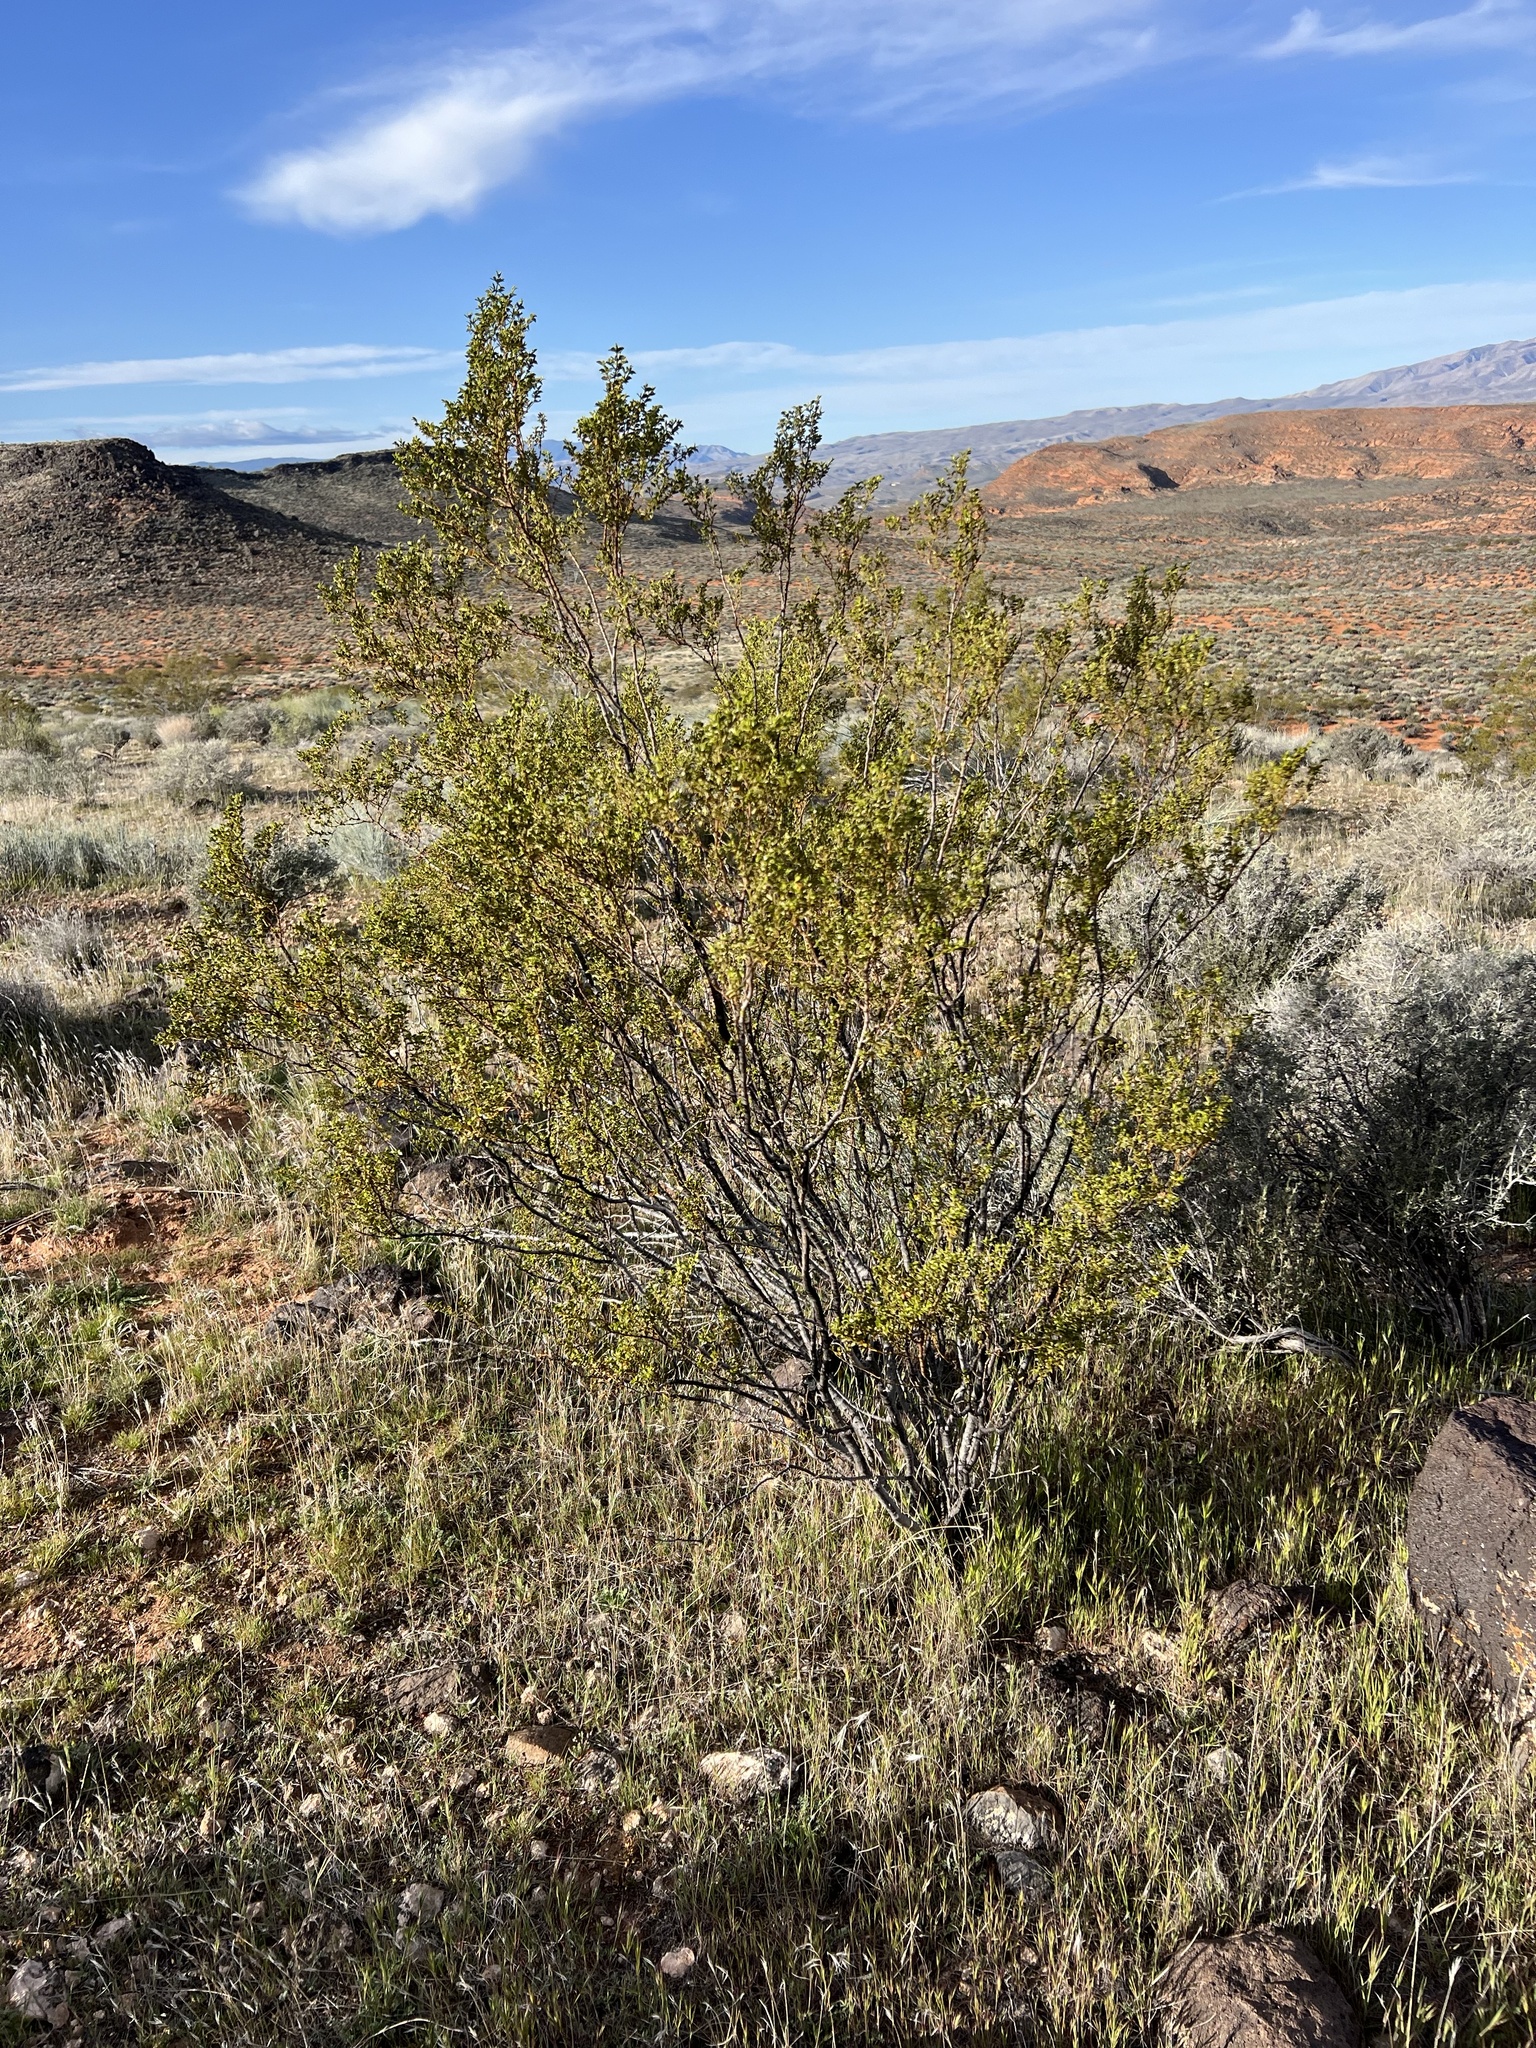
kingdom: Plantae
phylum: Tracheophyta
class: Magnoliopsida
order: Zygophyllales
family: Zygophyllaceae
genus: Larrea
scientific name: Larrea tridentata
